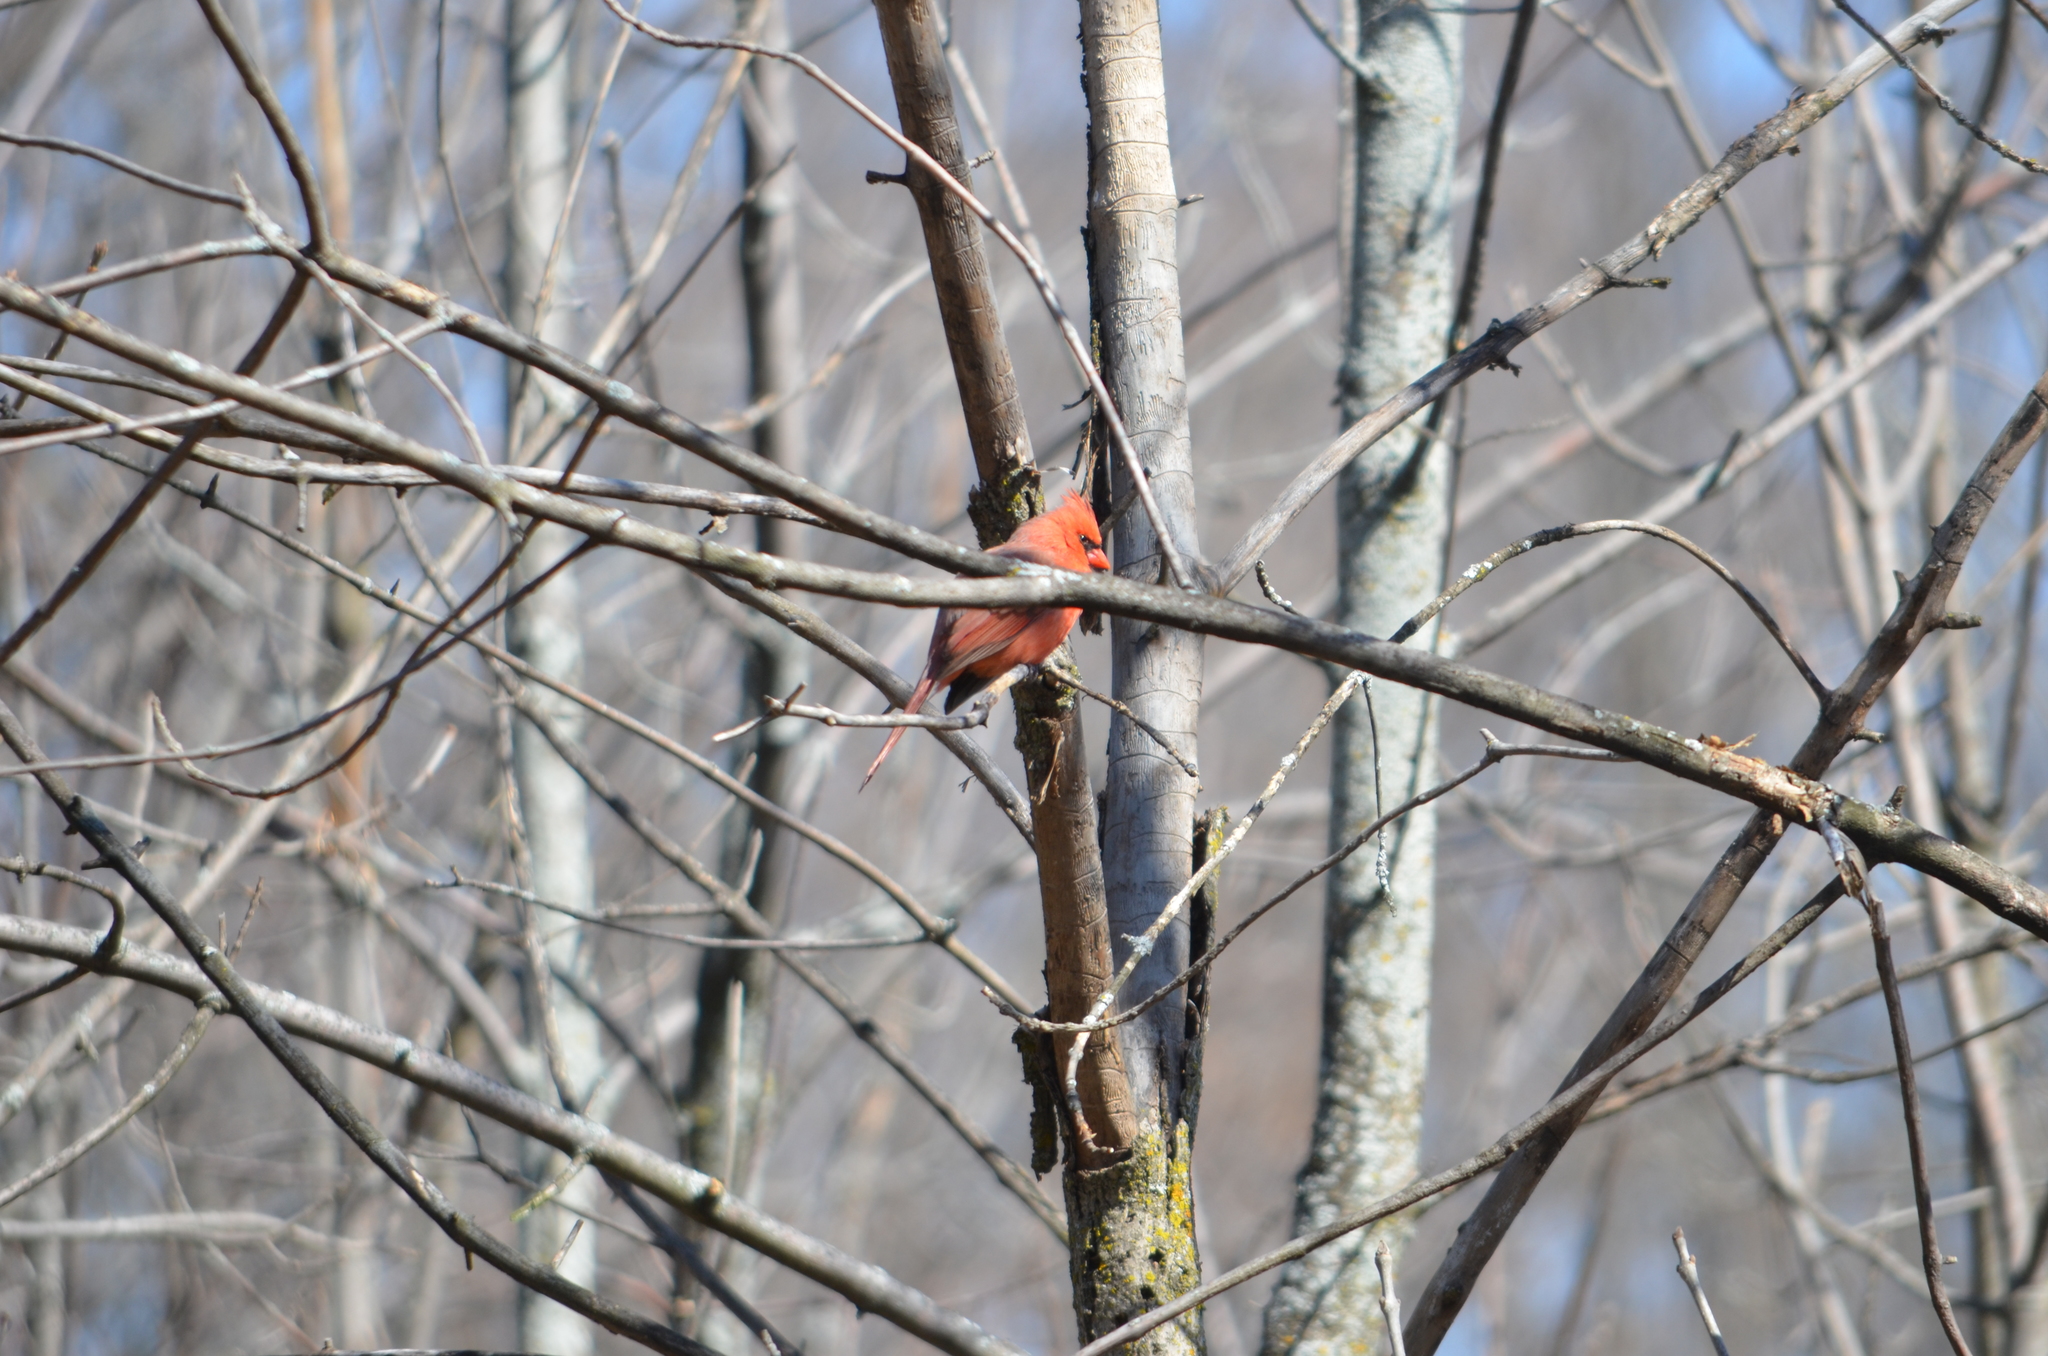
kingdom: Animalia
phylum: Chordata
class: Aves
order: Passeriformes
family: Cardinalidae
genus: Cardinalis
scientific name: Cardinalis cardinalis
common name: Northern cardinal
